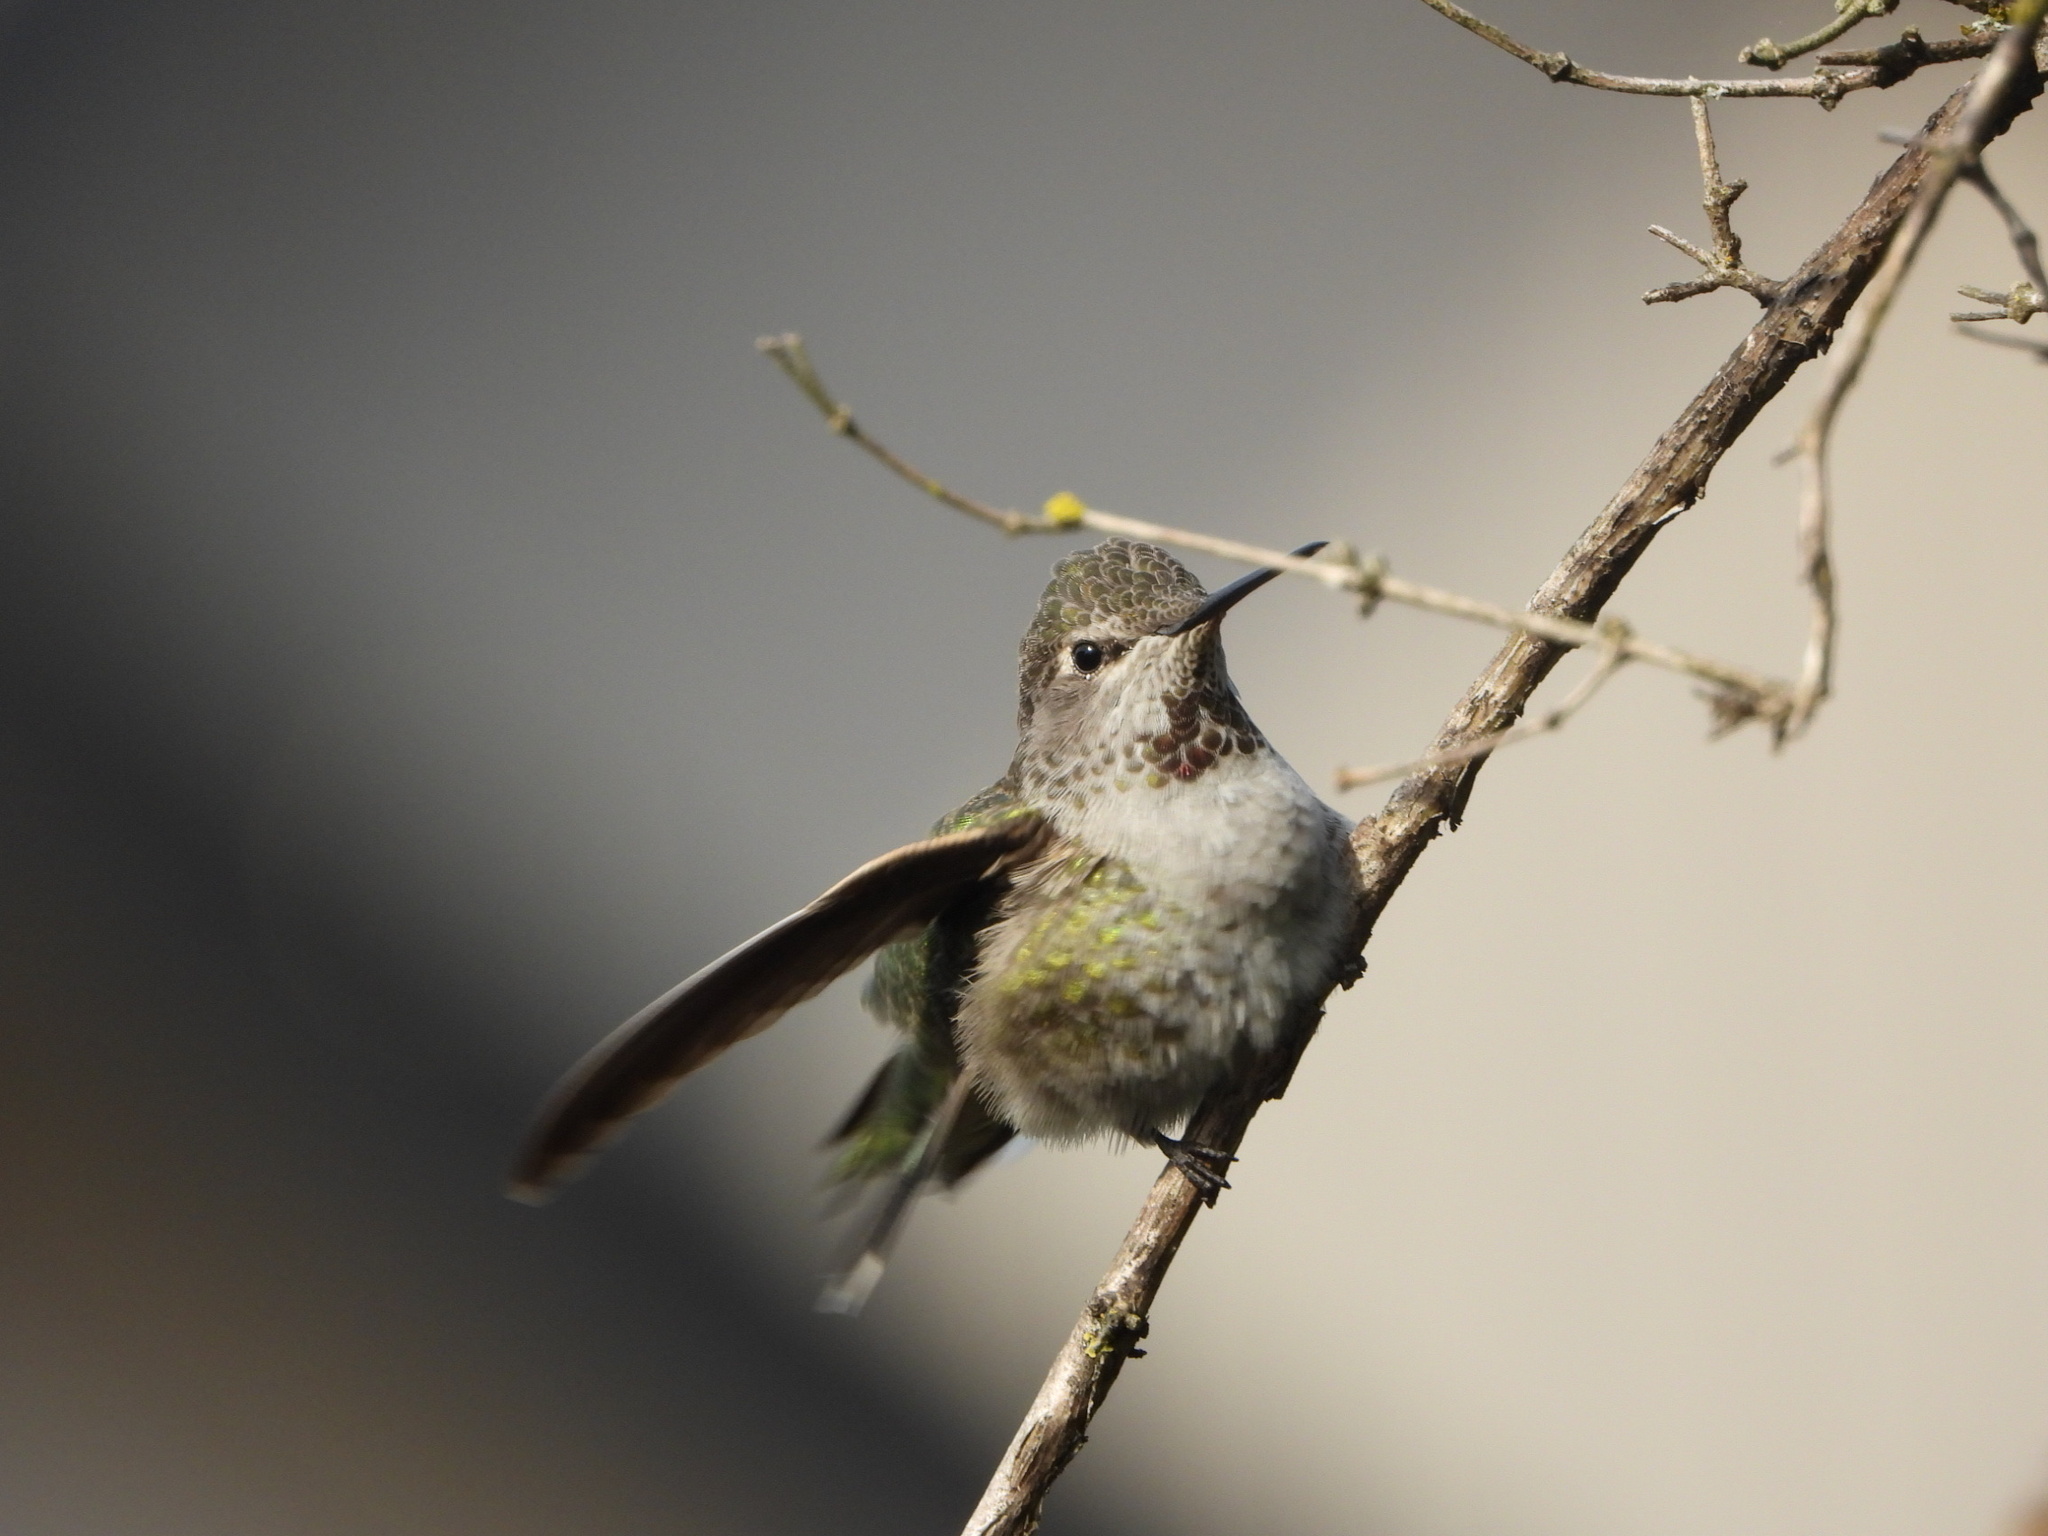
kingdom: Animalia
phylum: Chordata
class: Aves
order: Apodiformes
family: Trochilidae
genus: Calypte
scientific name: Calypte anna
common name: Anna's hummingbird
